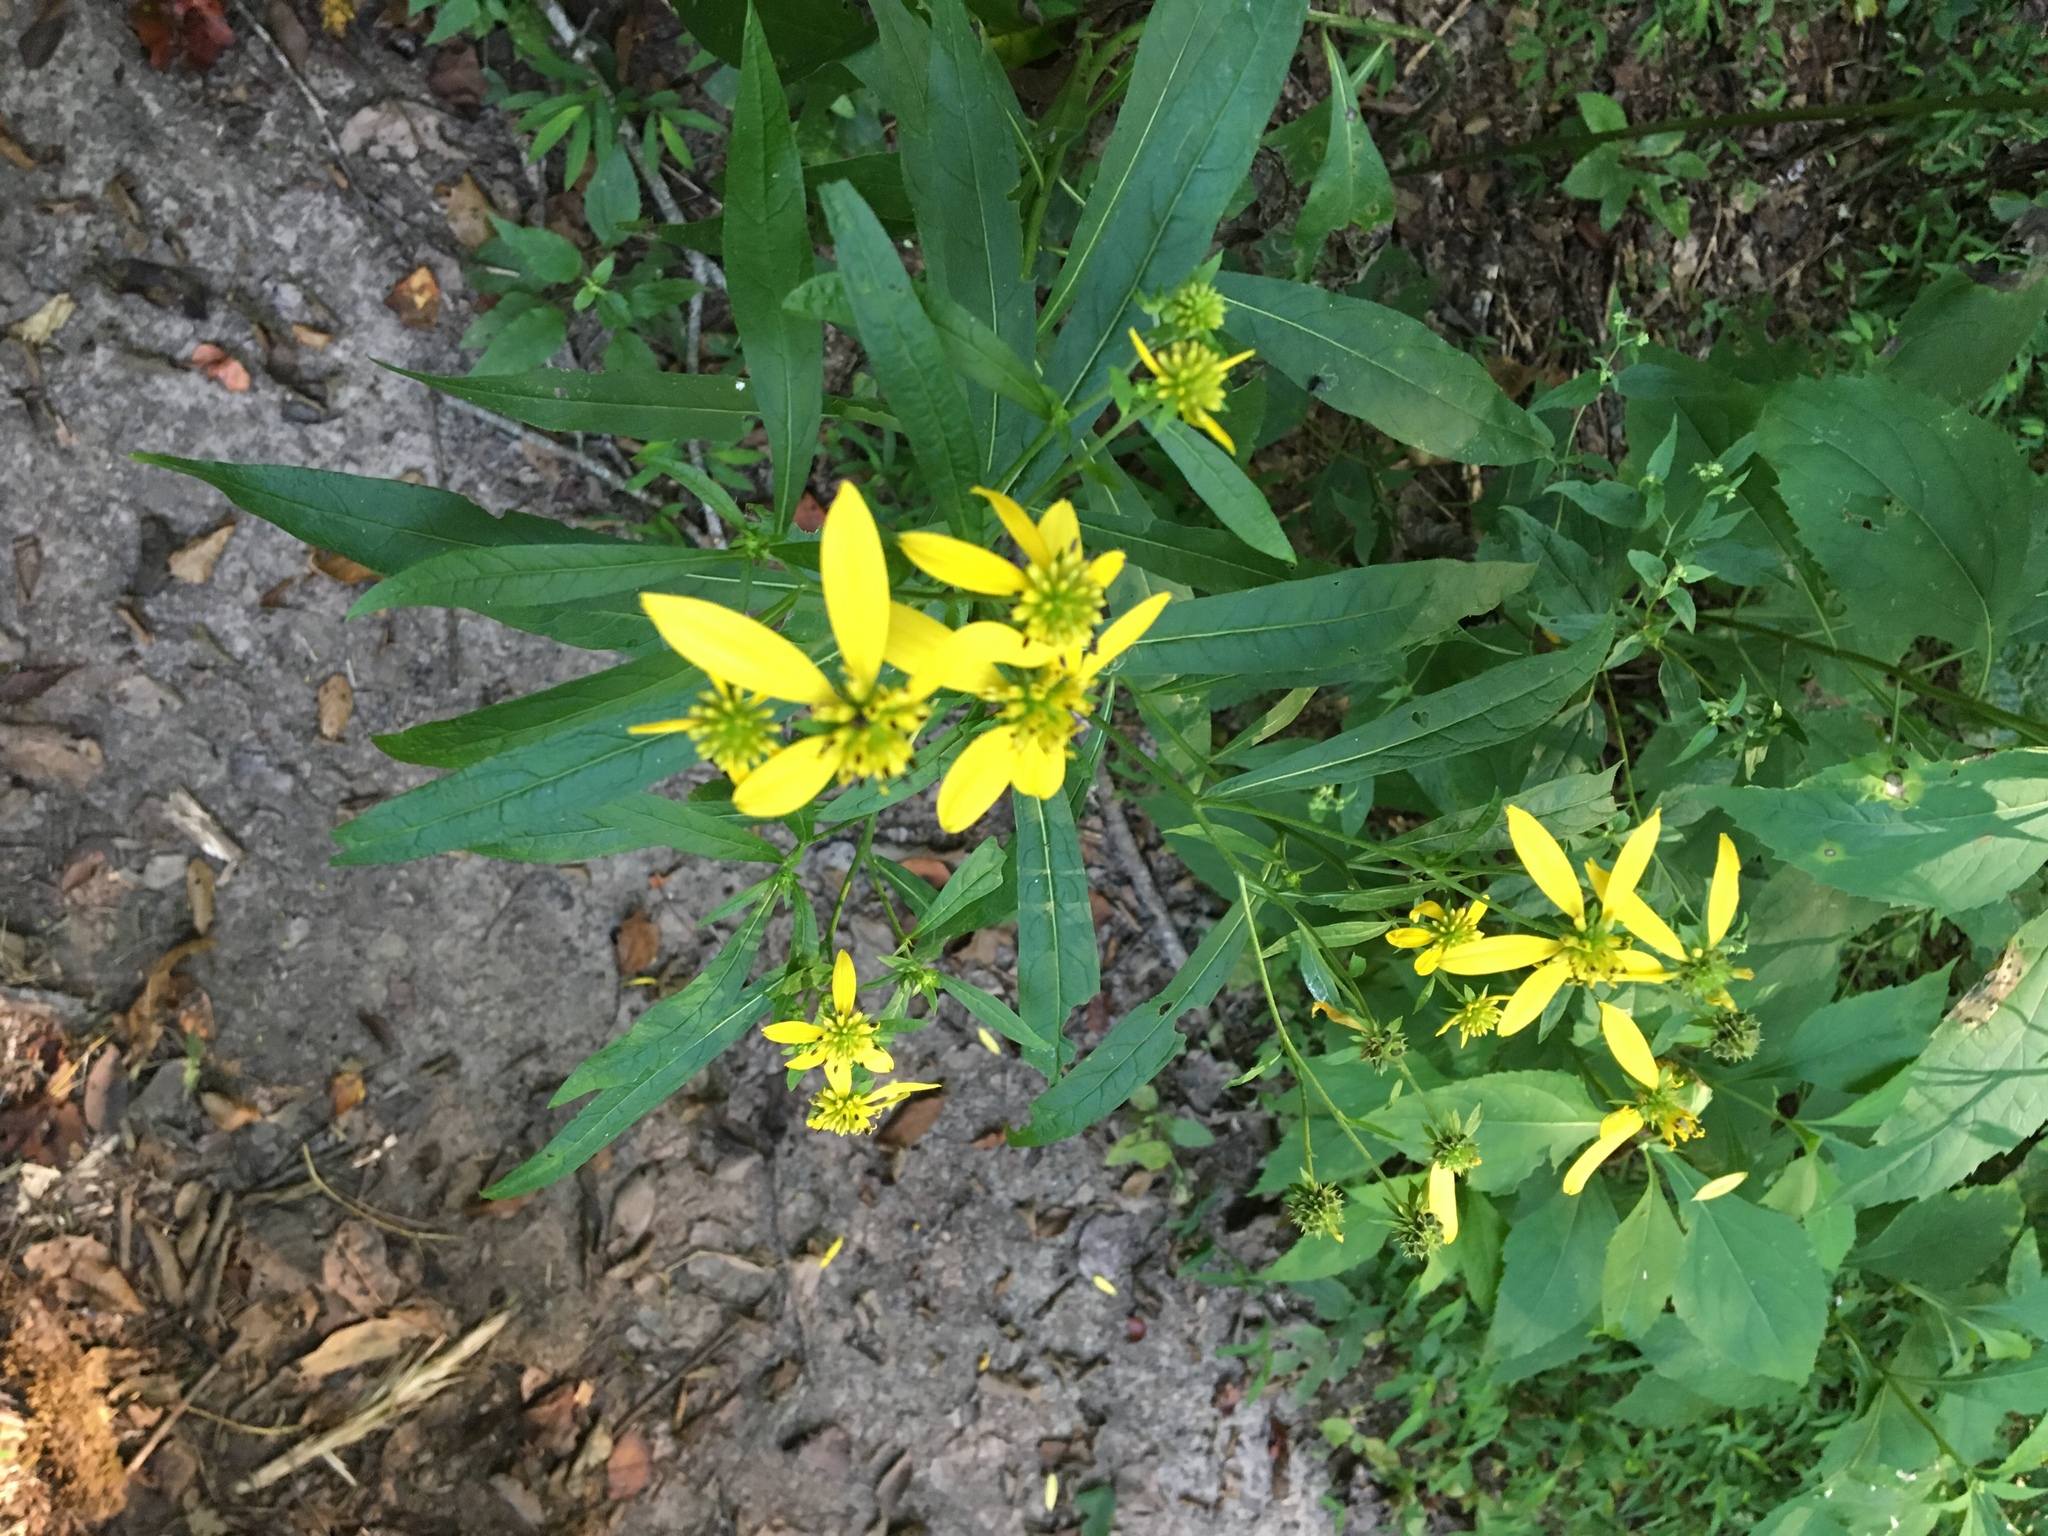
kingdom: Plantae
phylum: Tracheophyta
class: Magnoliopsida
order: Asterales
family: Asteraceae
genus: Verbesina
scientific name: Verbesina alternifolia
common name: Wingstem
